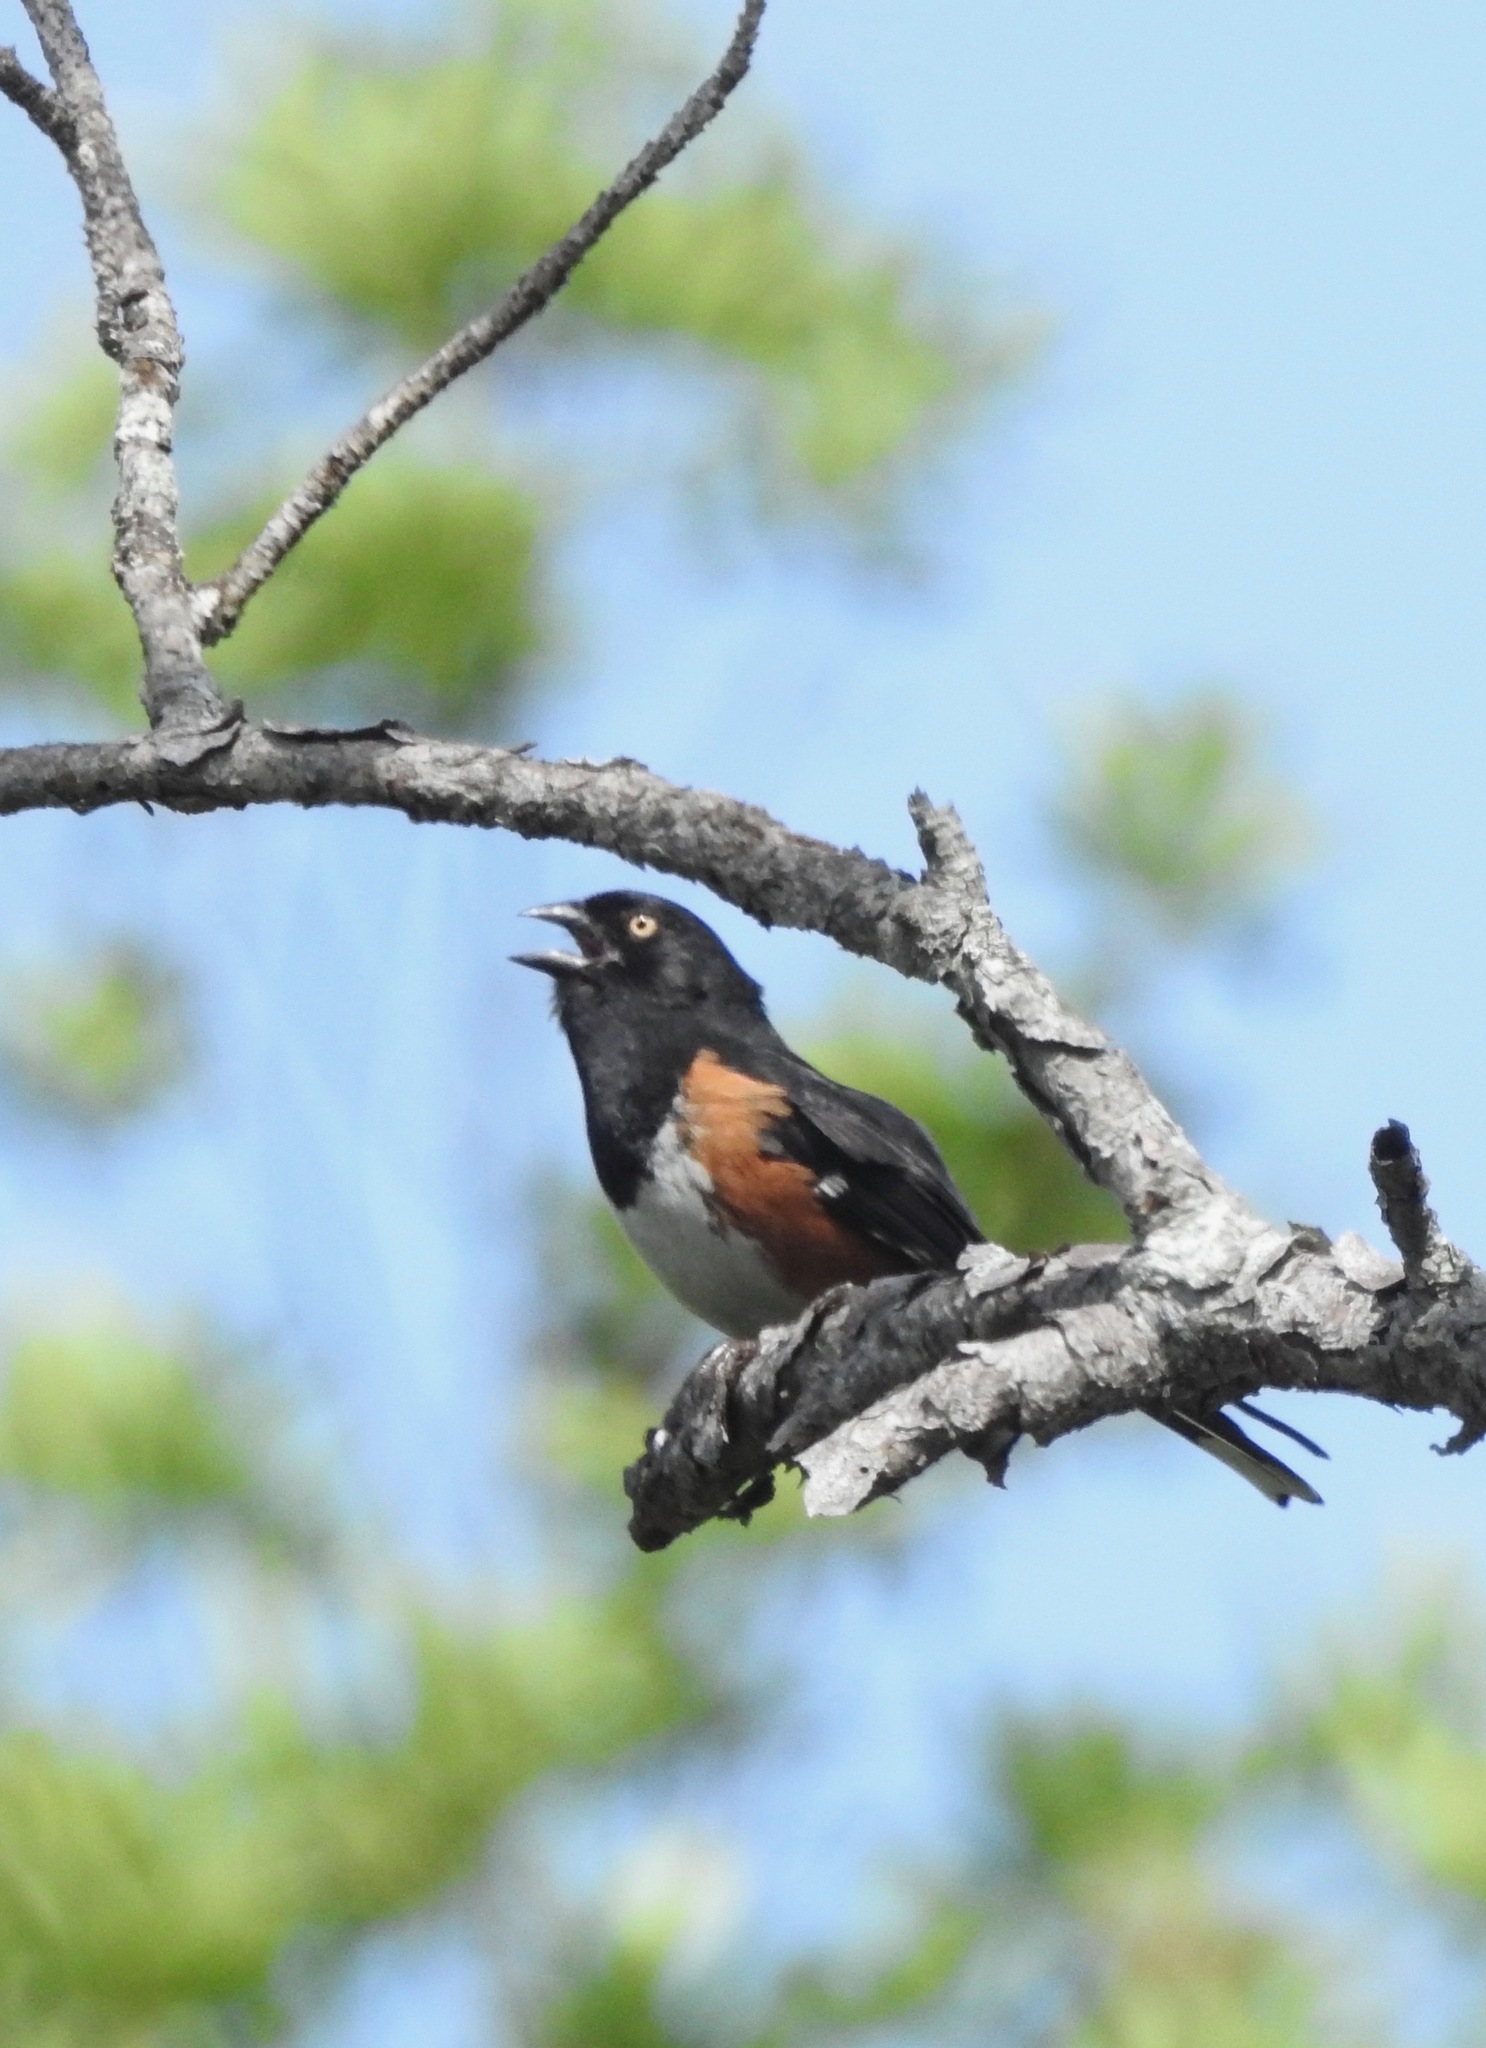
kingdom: Animalia
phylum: Chordata
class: Aves
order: Passeriformes
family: Passerellidae
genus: Pipilo
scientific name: Pipilo erythrophthalmus
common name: Eastern towhee
